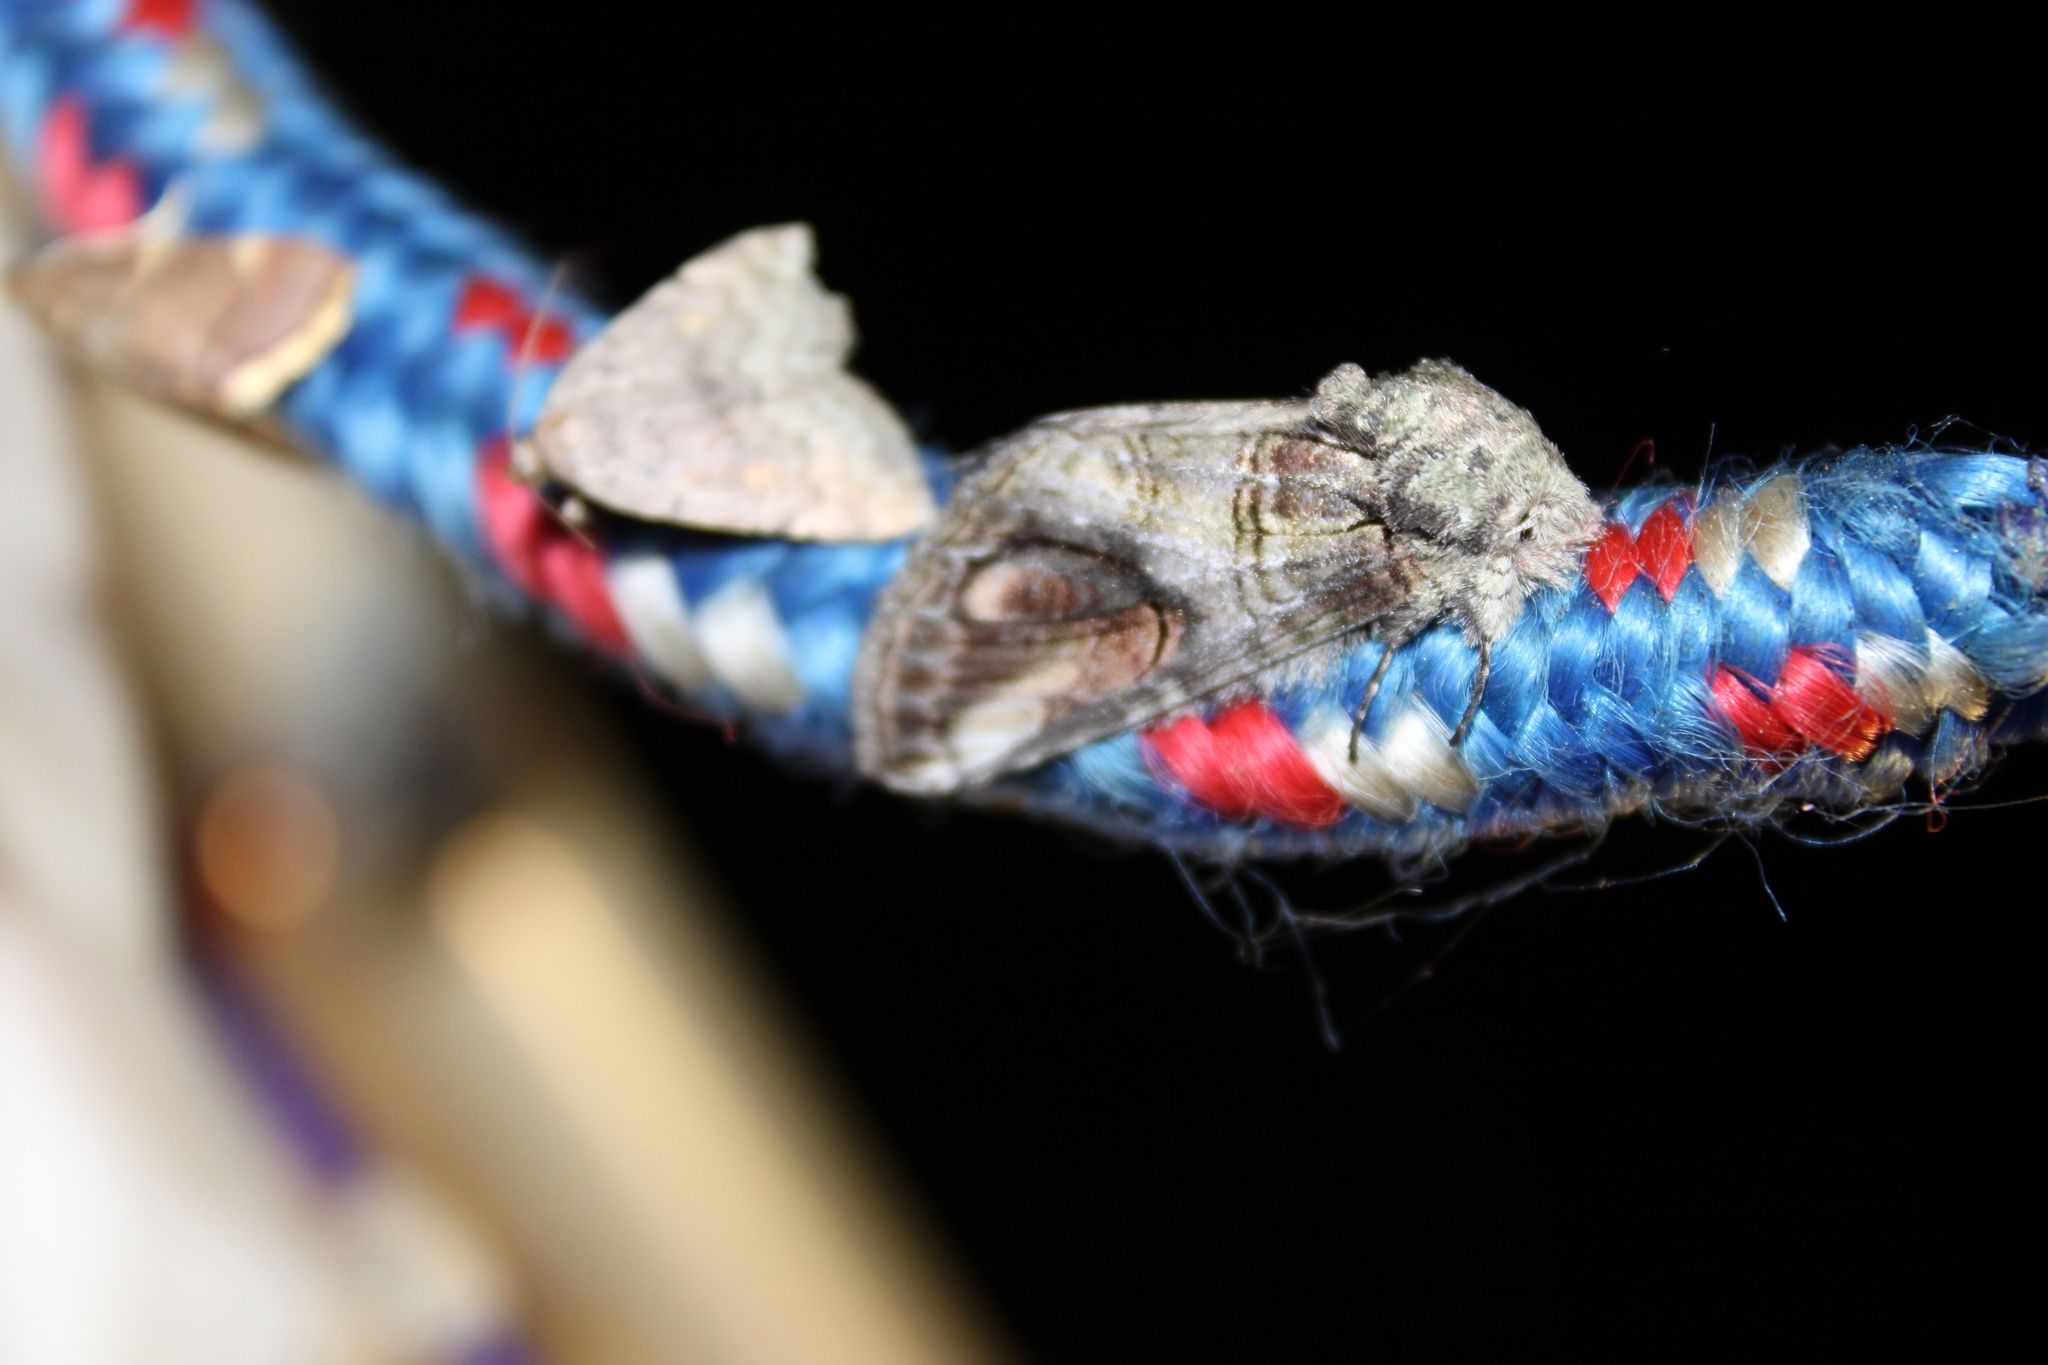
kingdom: Animalia
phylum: Arthropoda
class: Insecta
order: Lepidoptera
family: Notodontidae
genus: Heterocampa
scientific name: Heterocampa obliqua
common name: Oblique heterocampa
